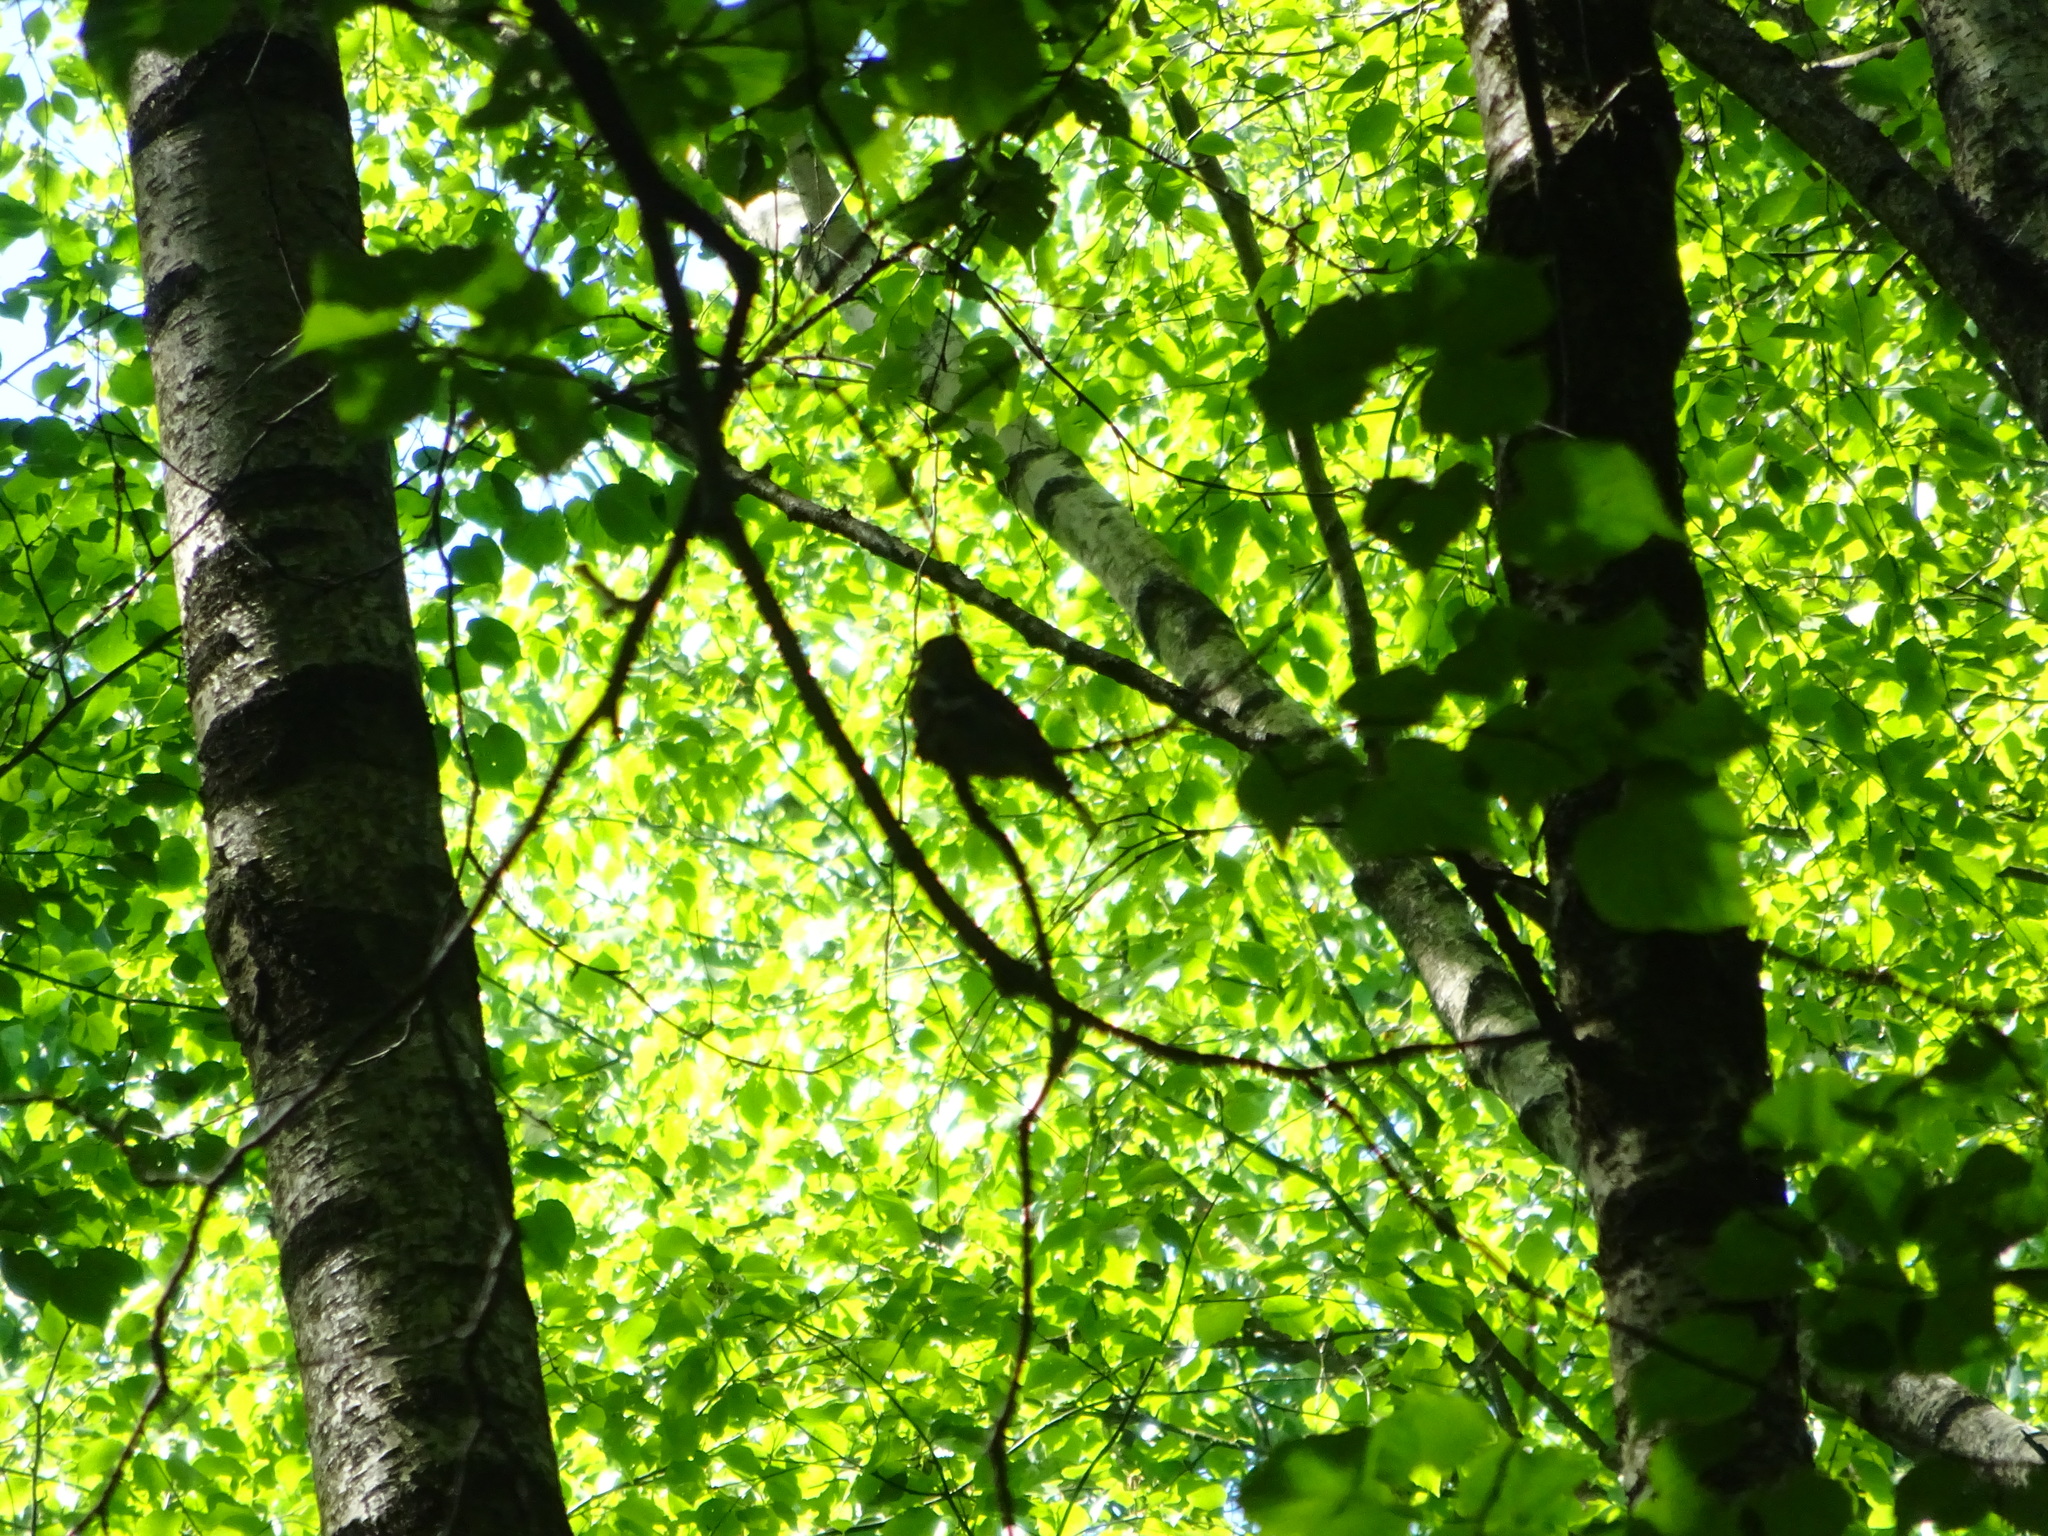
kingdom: Animalia
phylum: Chordata
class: Aves
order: Passeriformes
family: Fringillidae
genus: Fringilla
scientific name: Fringilla coelebs
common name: Common chaffinch
